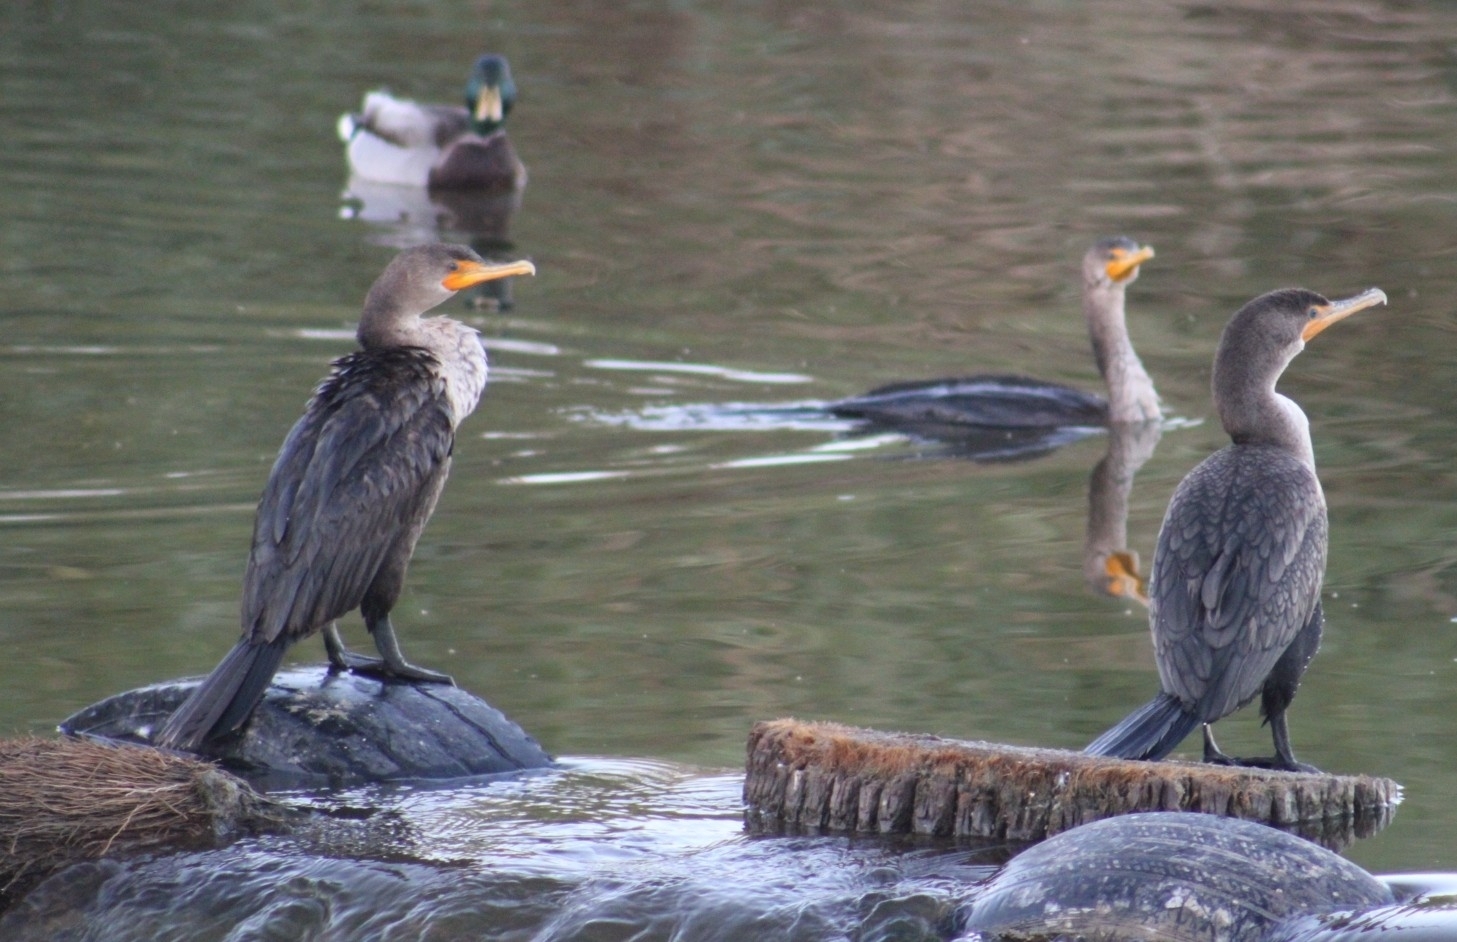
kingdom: Animalia
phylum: Chordata
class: Aves
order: Suliformes
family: Phalacrocoracidae
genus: Phalacrocorax
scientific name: Phalacrocorax auritus
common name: Double-crested cormorant
